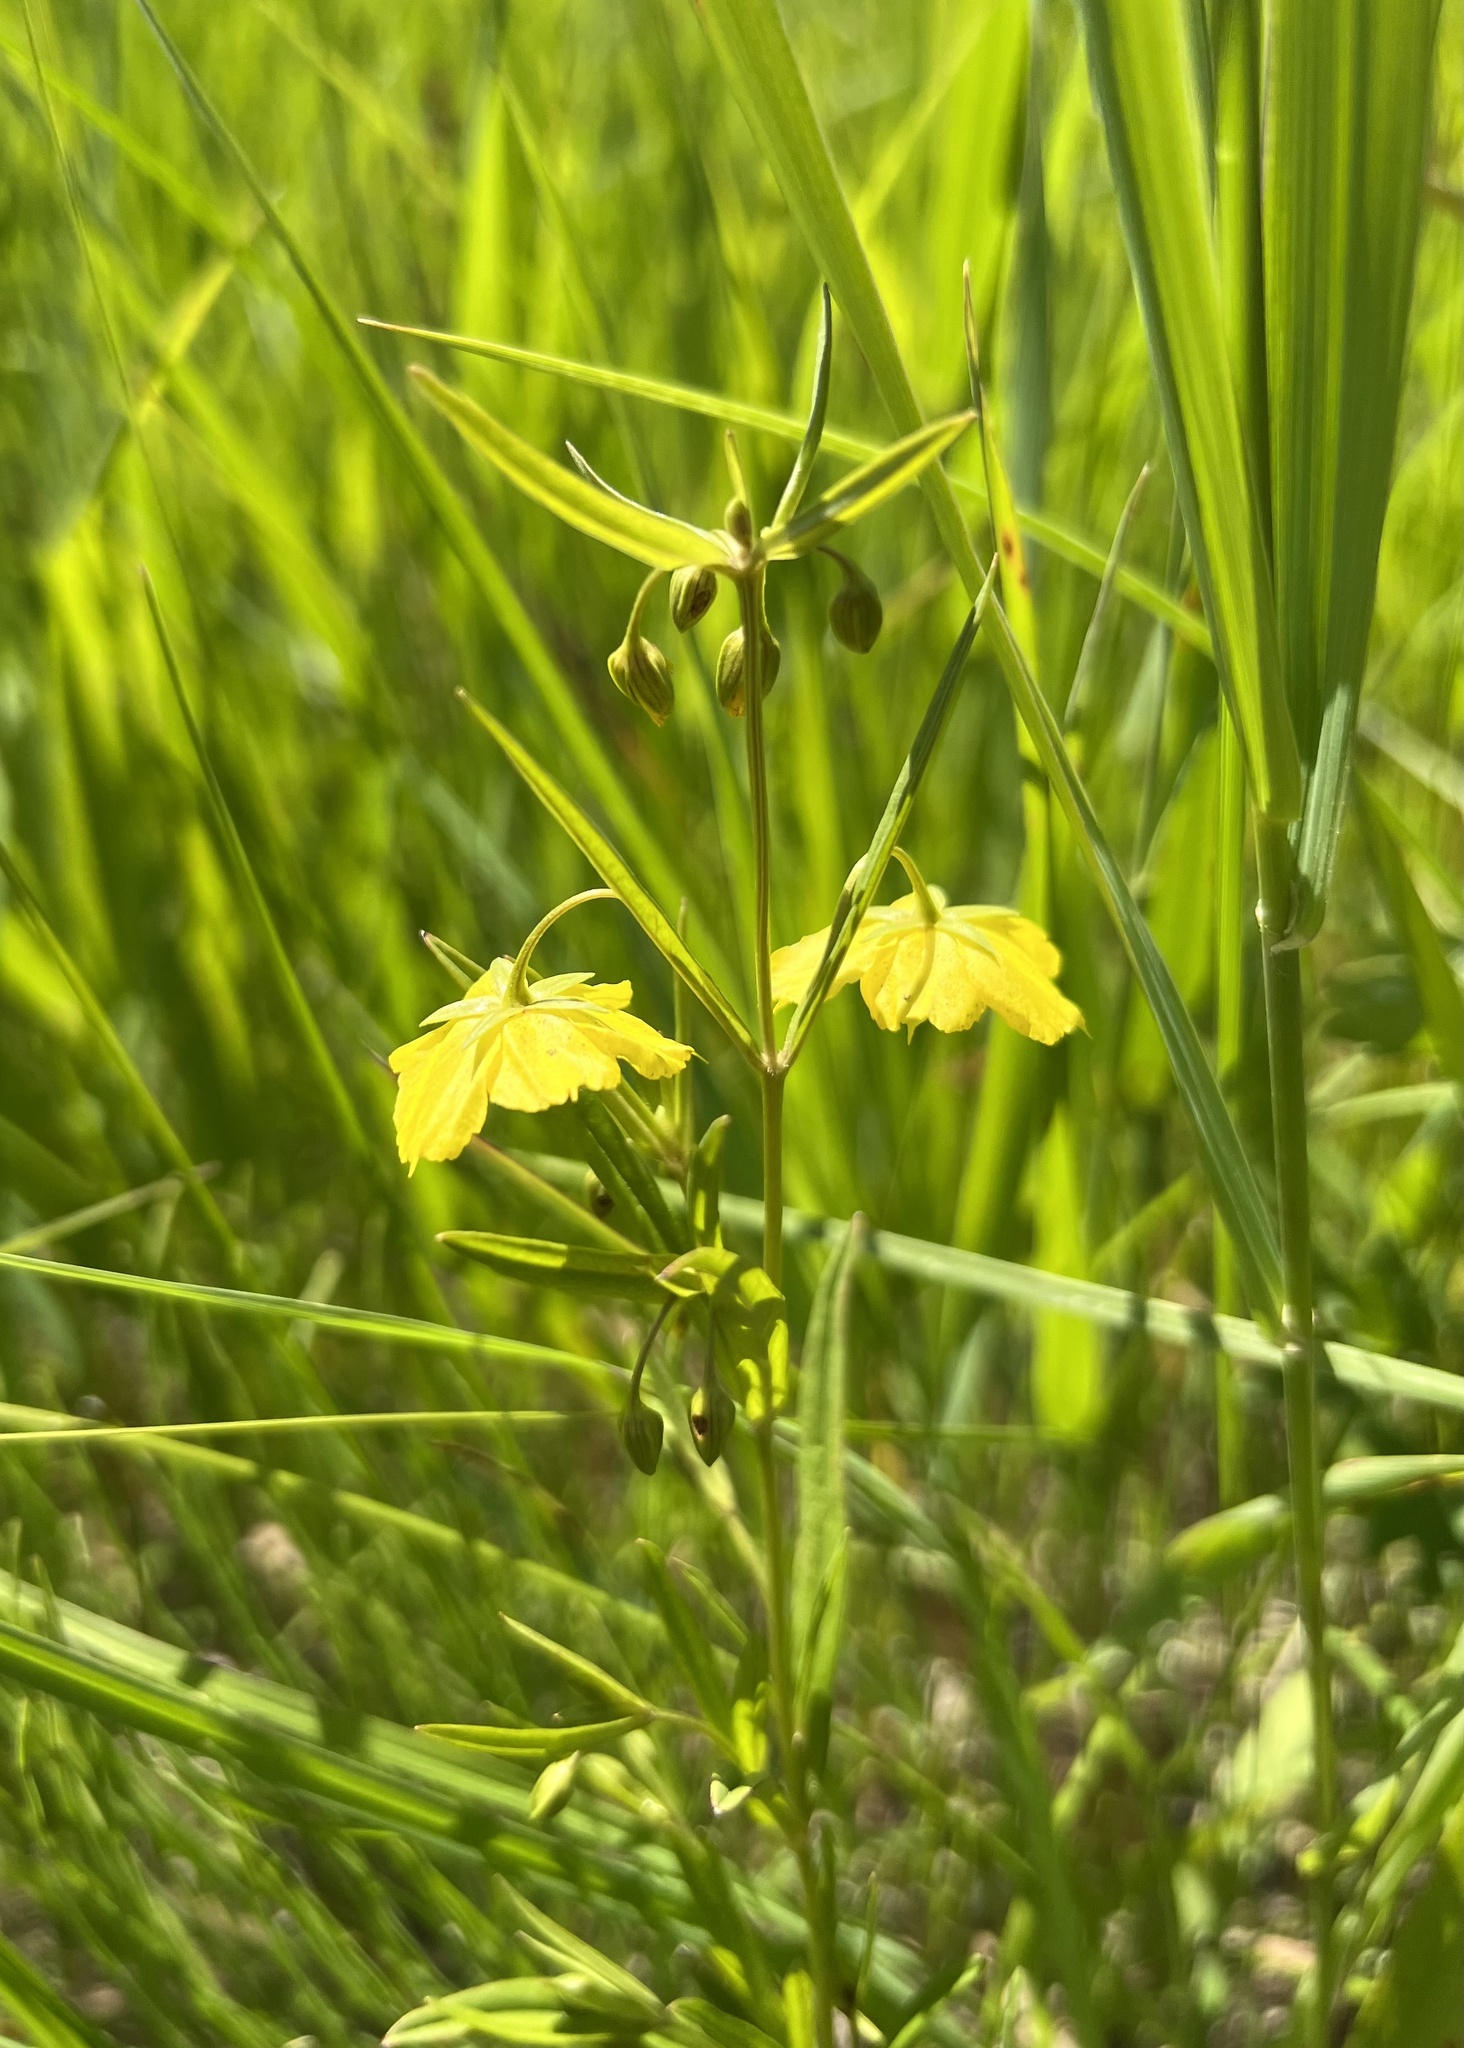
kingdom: Plantae
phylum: Tracheophyta
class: Magnoliopsida
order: Ericales
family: Primulaceae
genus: Lysimachia
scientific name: Lysimachia quadriflora
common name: Four-flowered loosestrife
